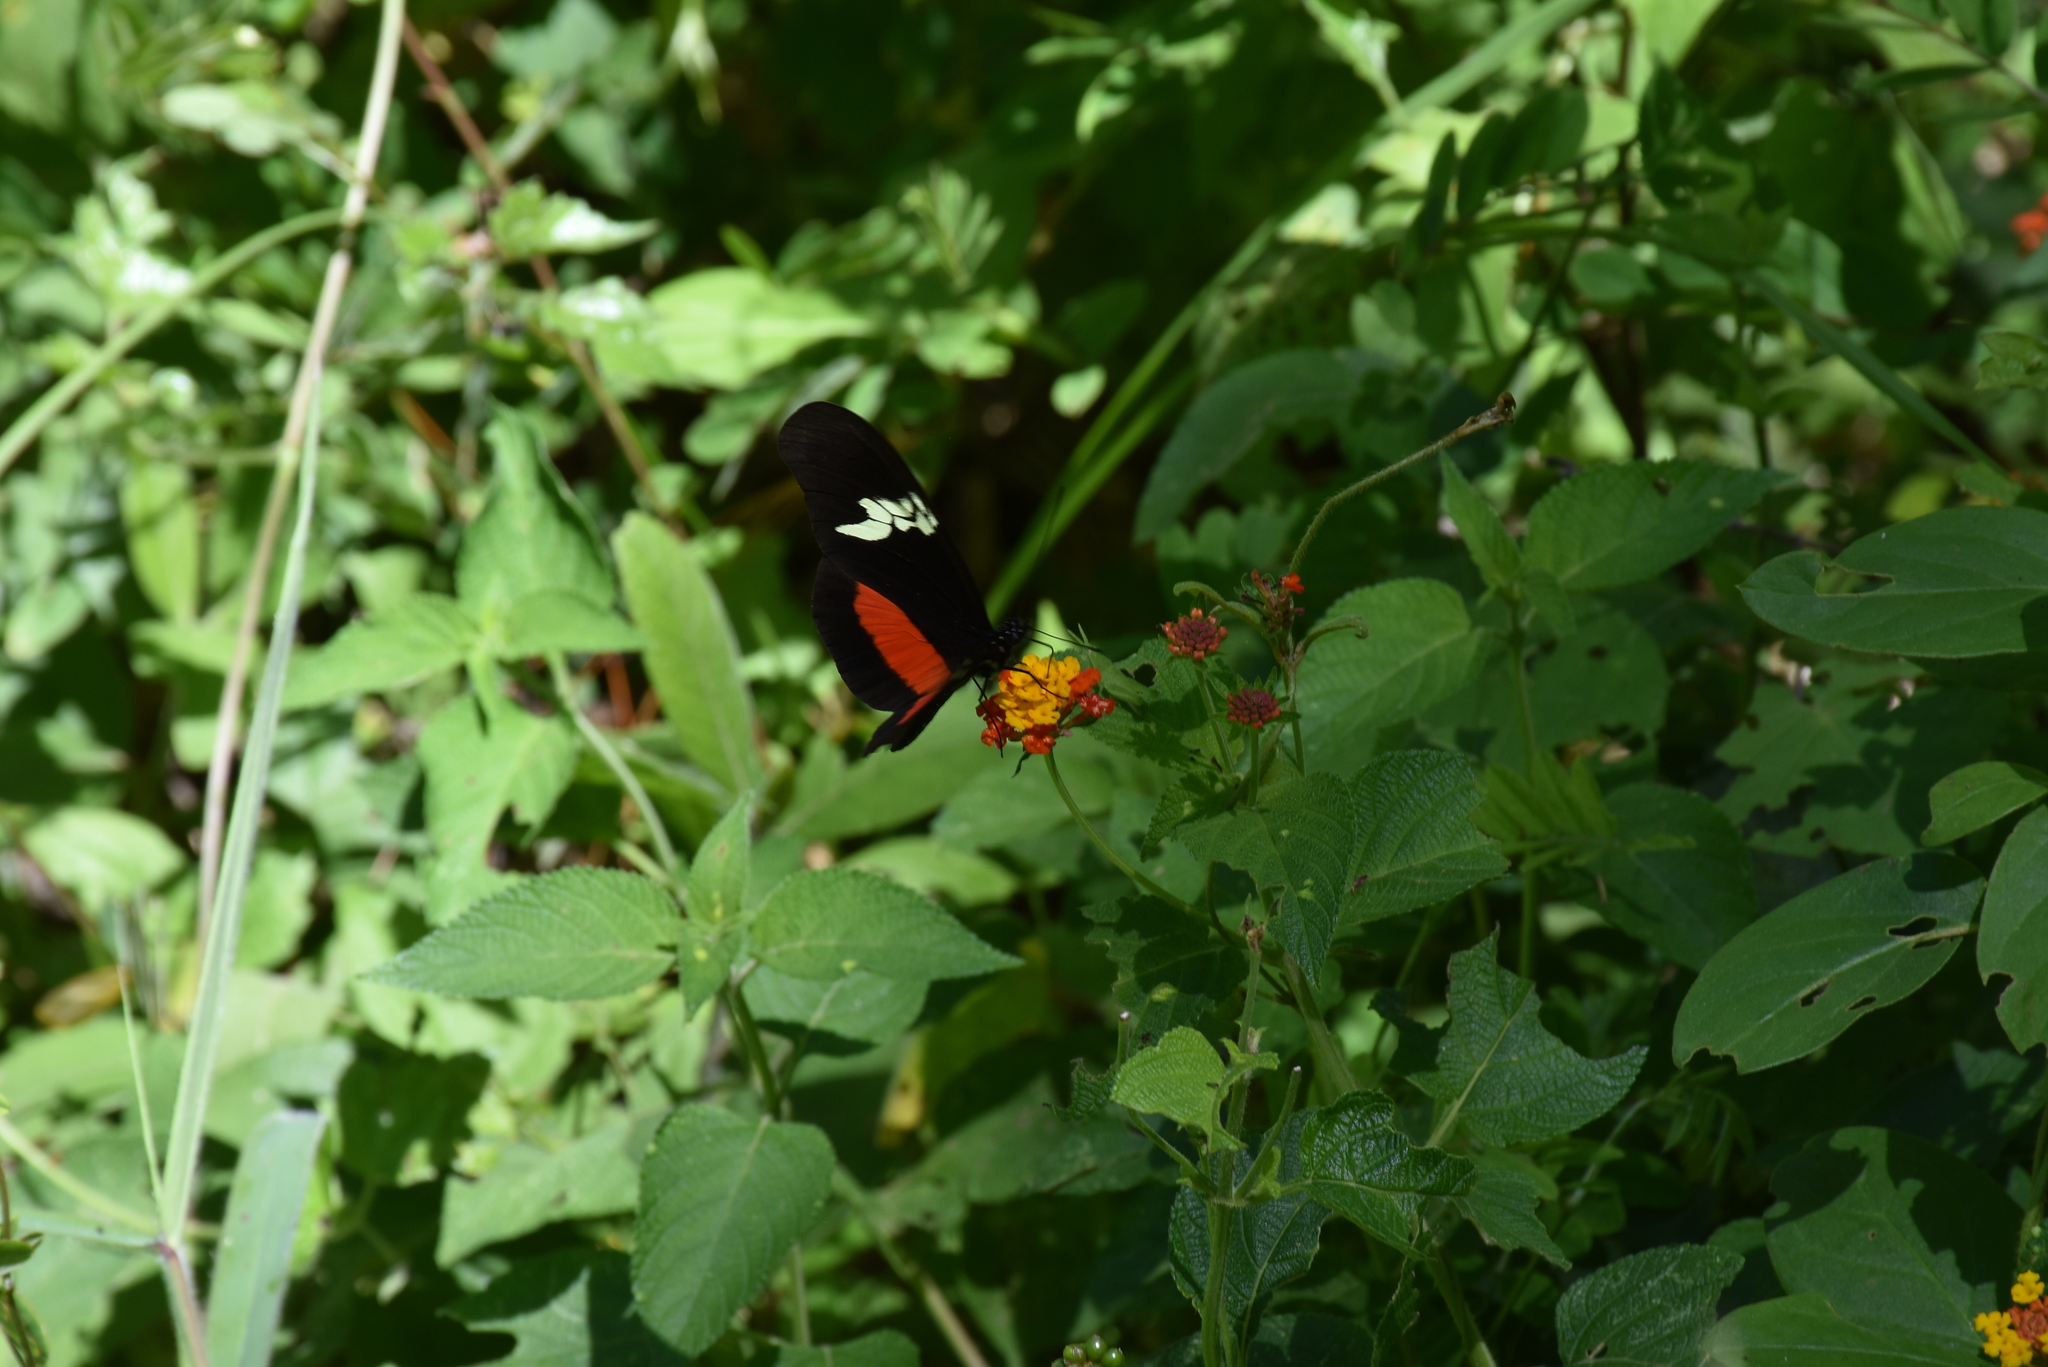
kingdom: Animalia
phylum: Arthropoda
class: Insecta
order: Lepidoptera
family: Nymphalidae
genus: Heliconius
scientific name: Heliconius hortense
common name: Mexican longwing
